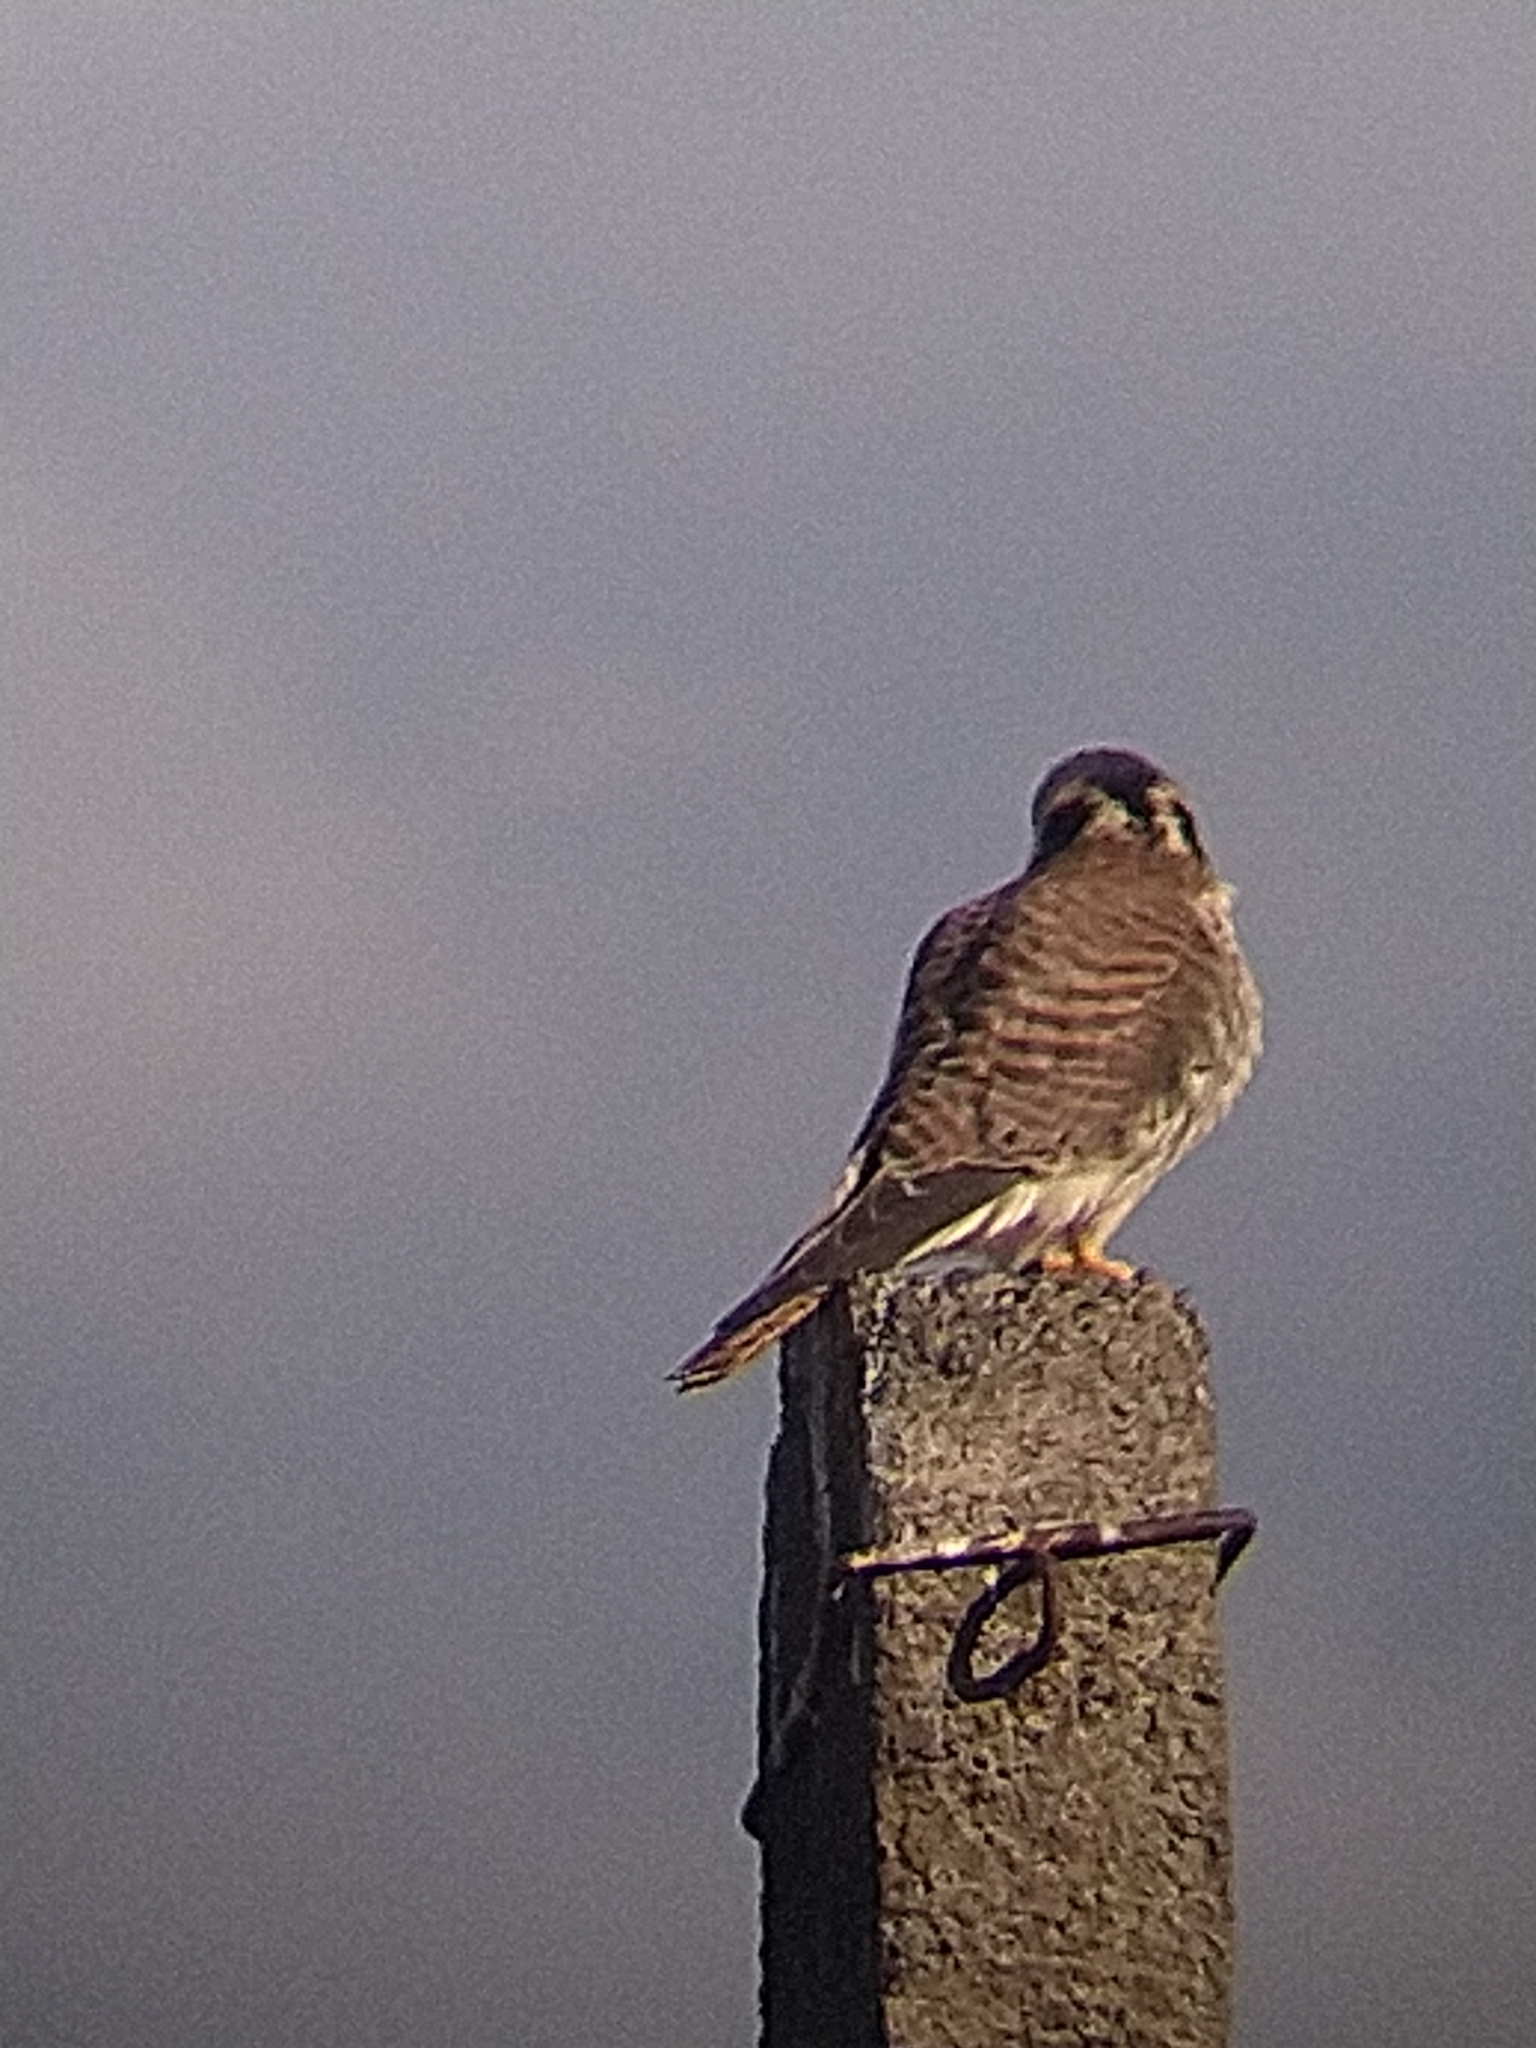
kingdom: Animalia
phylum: Chordata
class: Aves
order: Falconiformes
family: Falconidae
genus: Falco
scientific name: Falco sparverius
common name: American kestrel
